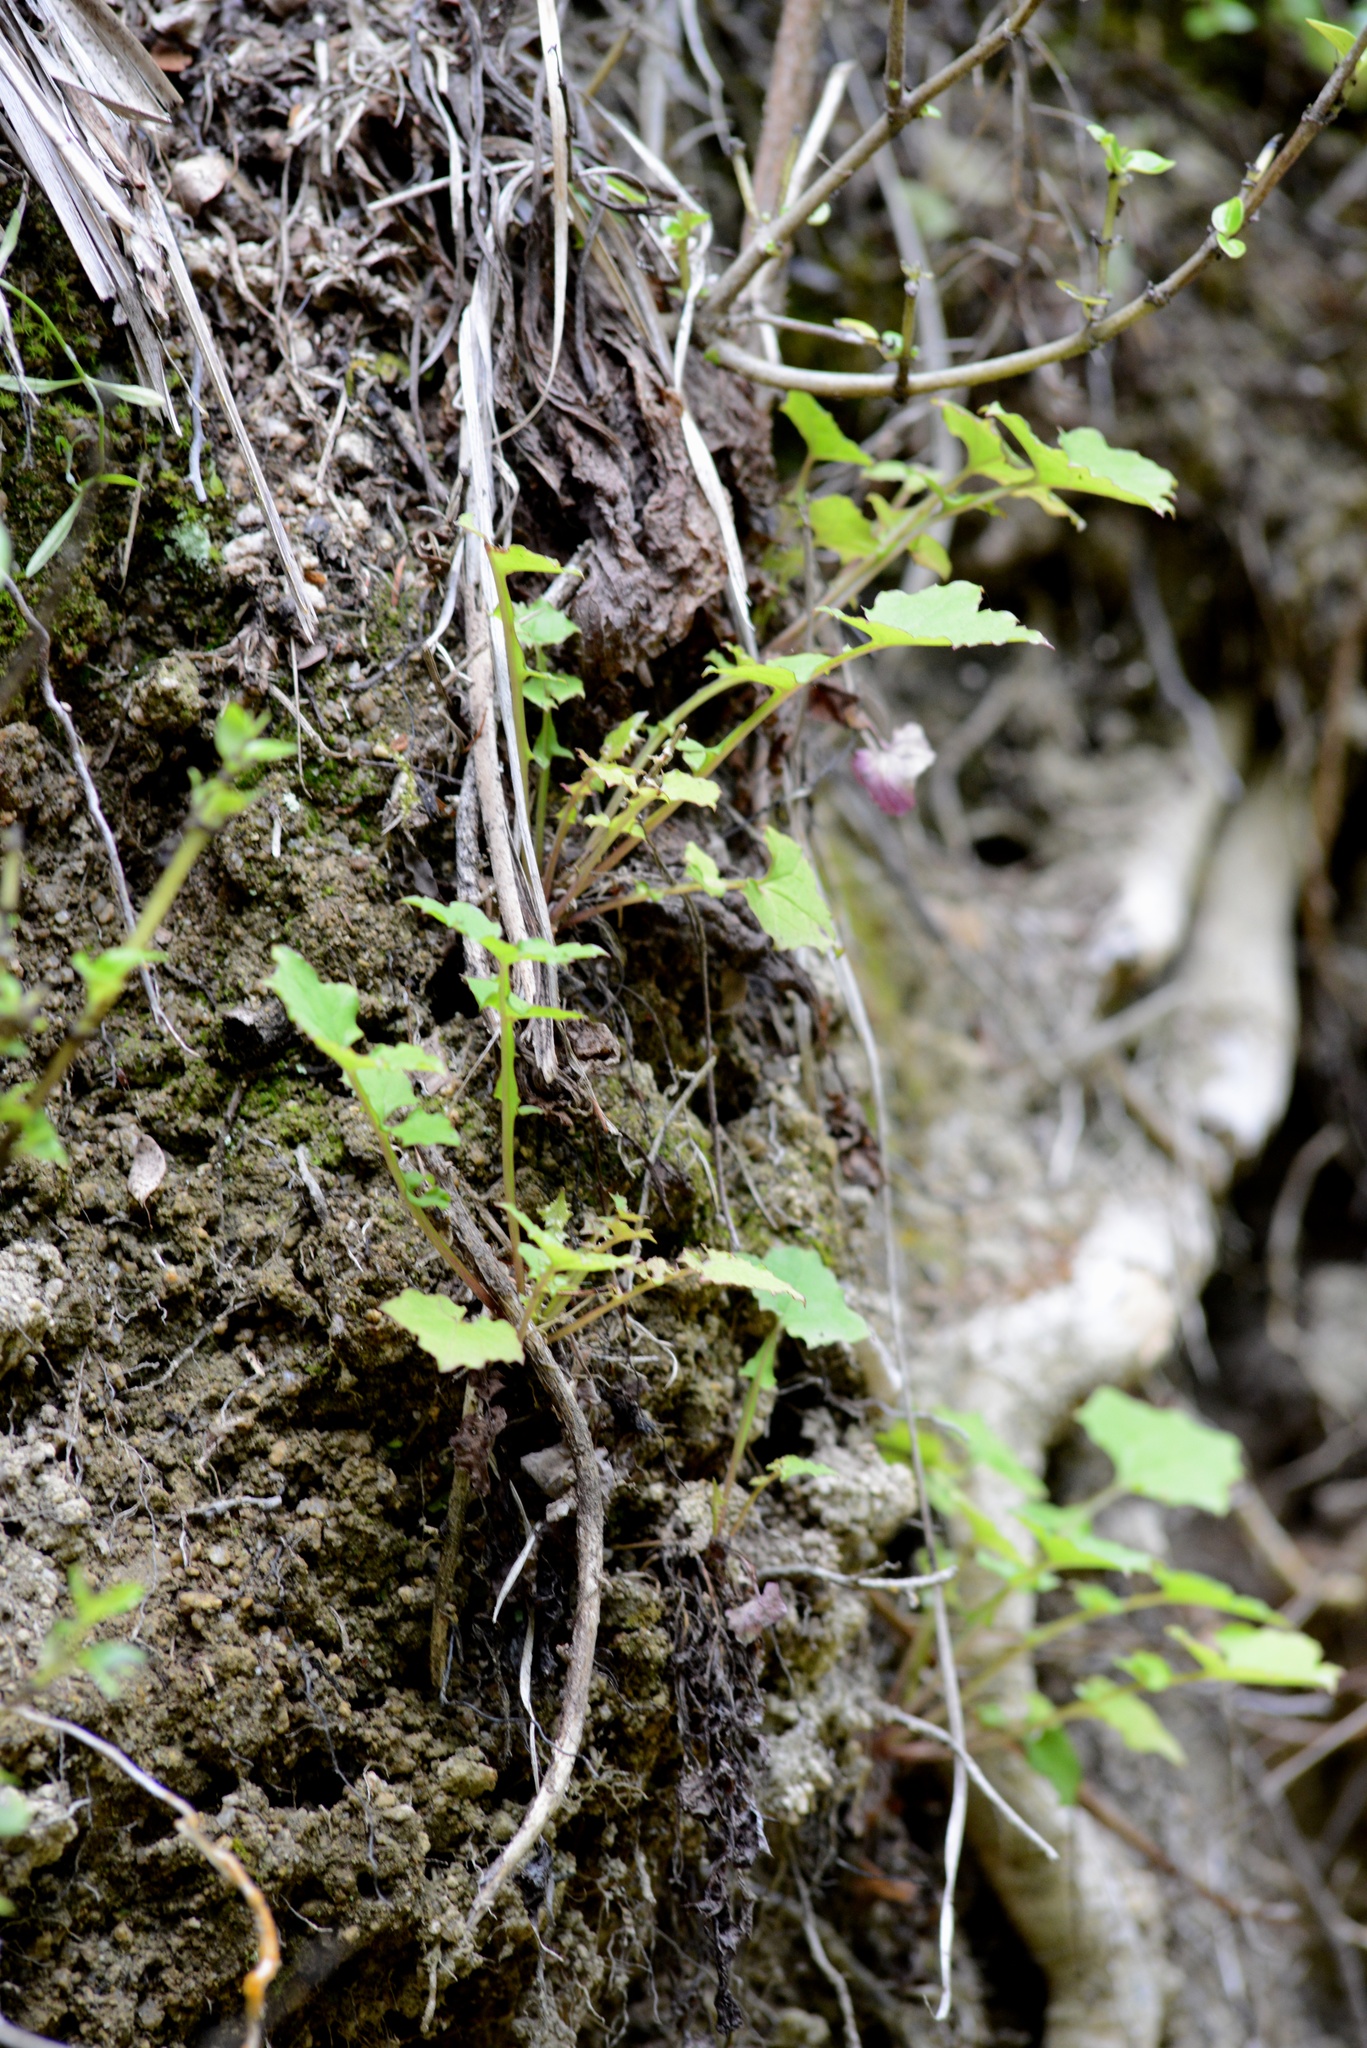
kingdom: Plantae
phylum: Tracheophyta
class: Magnoliopsida
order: Asterales
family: Asteraceae
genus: Mycelis
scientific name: Mycelis muralis
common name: Wall lettuce
